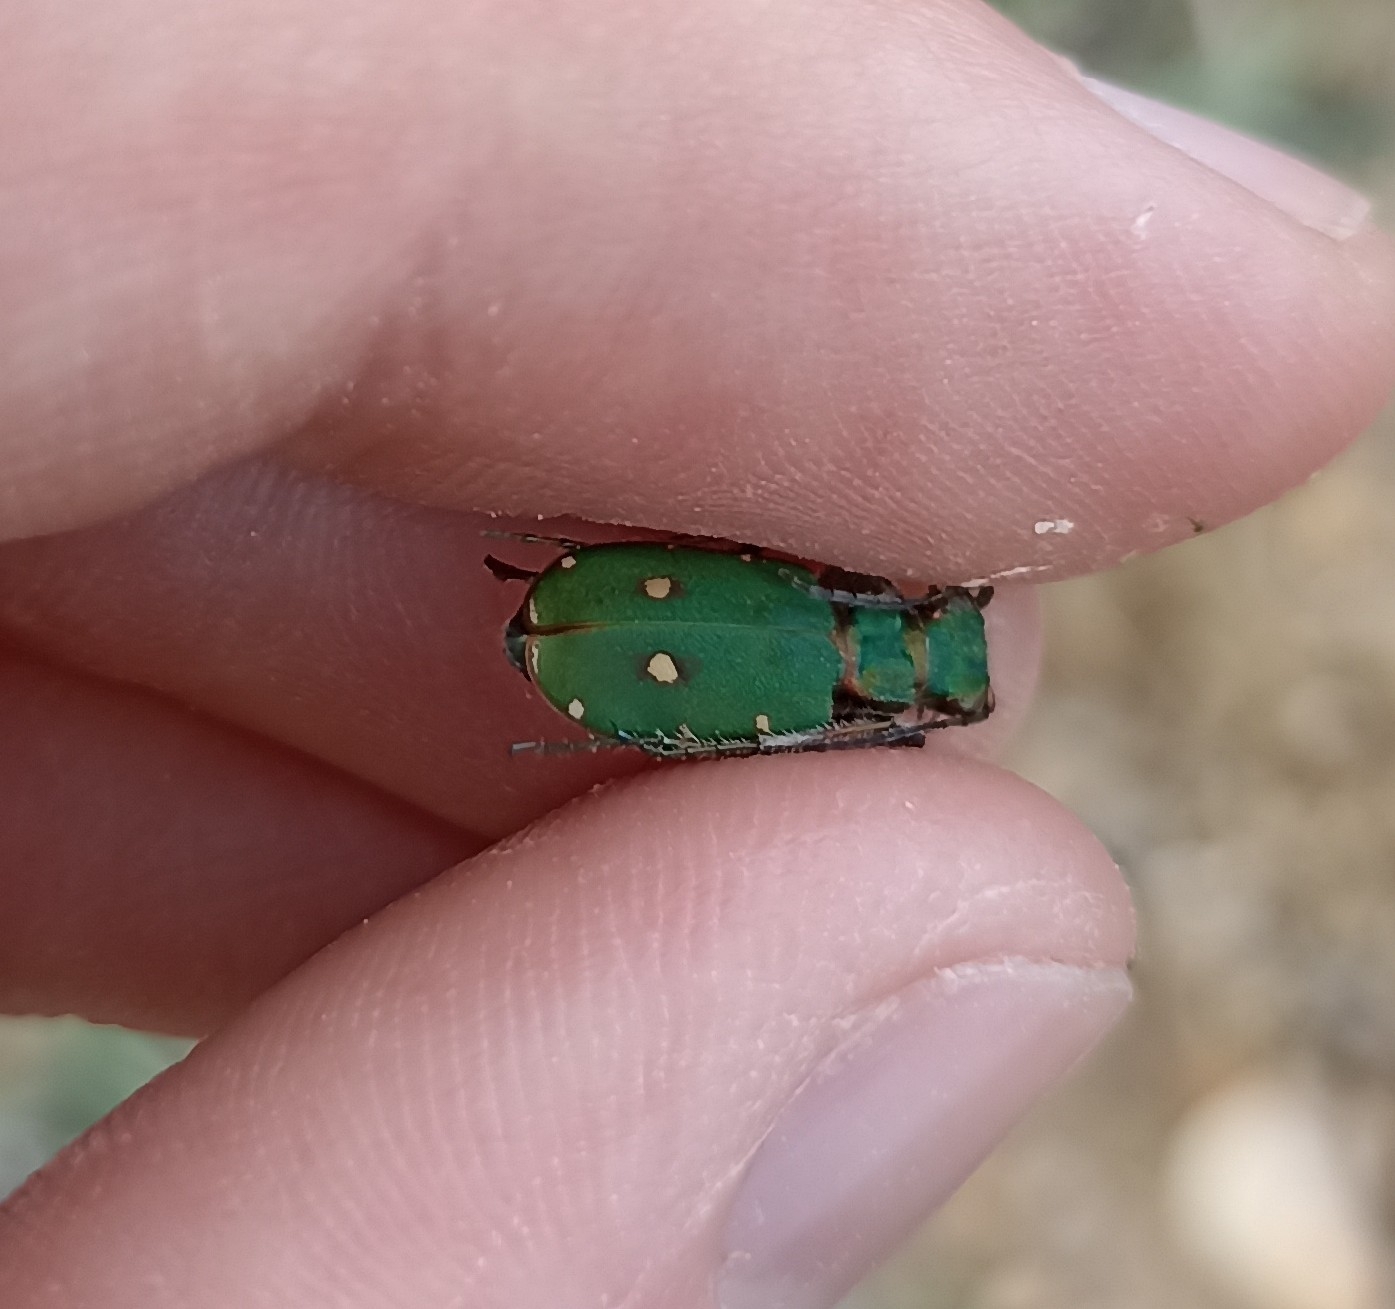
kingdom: Animalia
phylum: Arthropoda
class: Insecta
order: Coleoptera
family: Carabidae
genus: Cicindela
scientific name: Cicindela campestris
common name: Common tiger beetle
